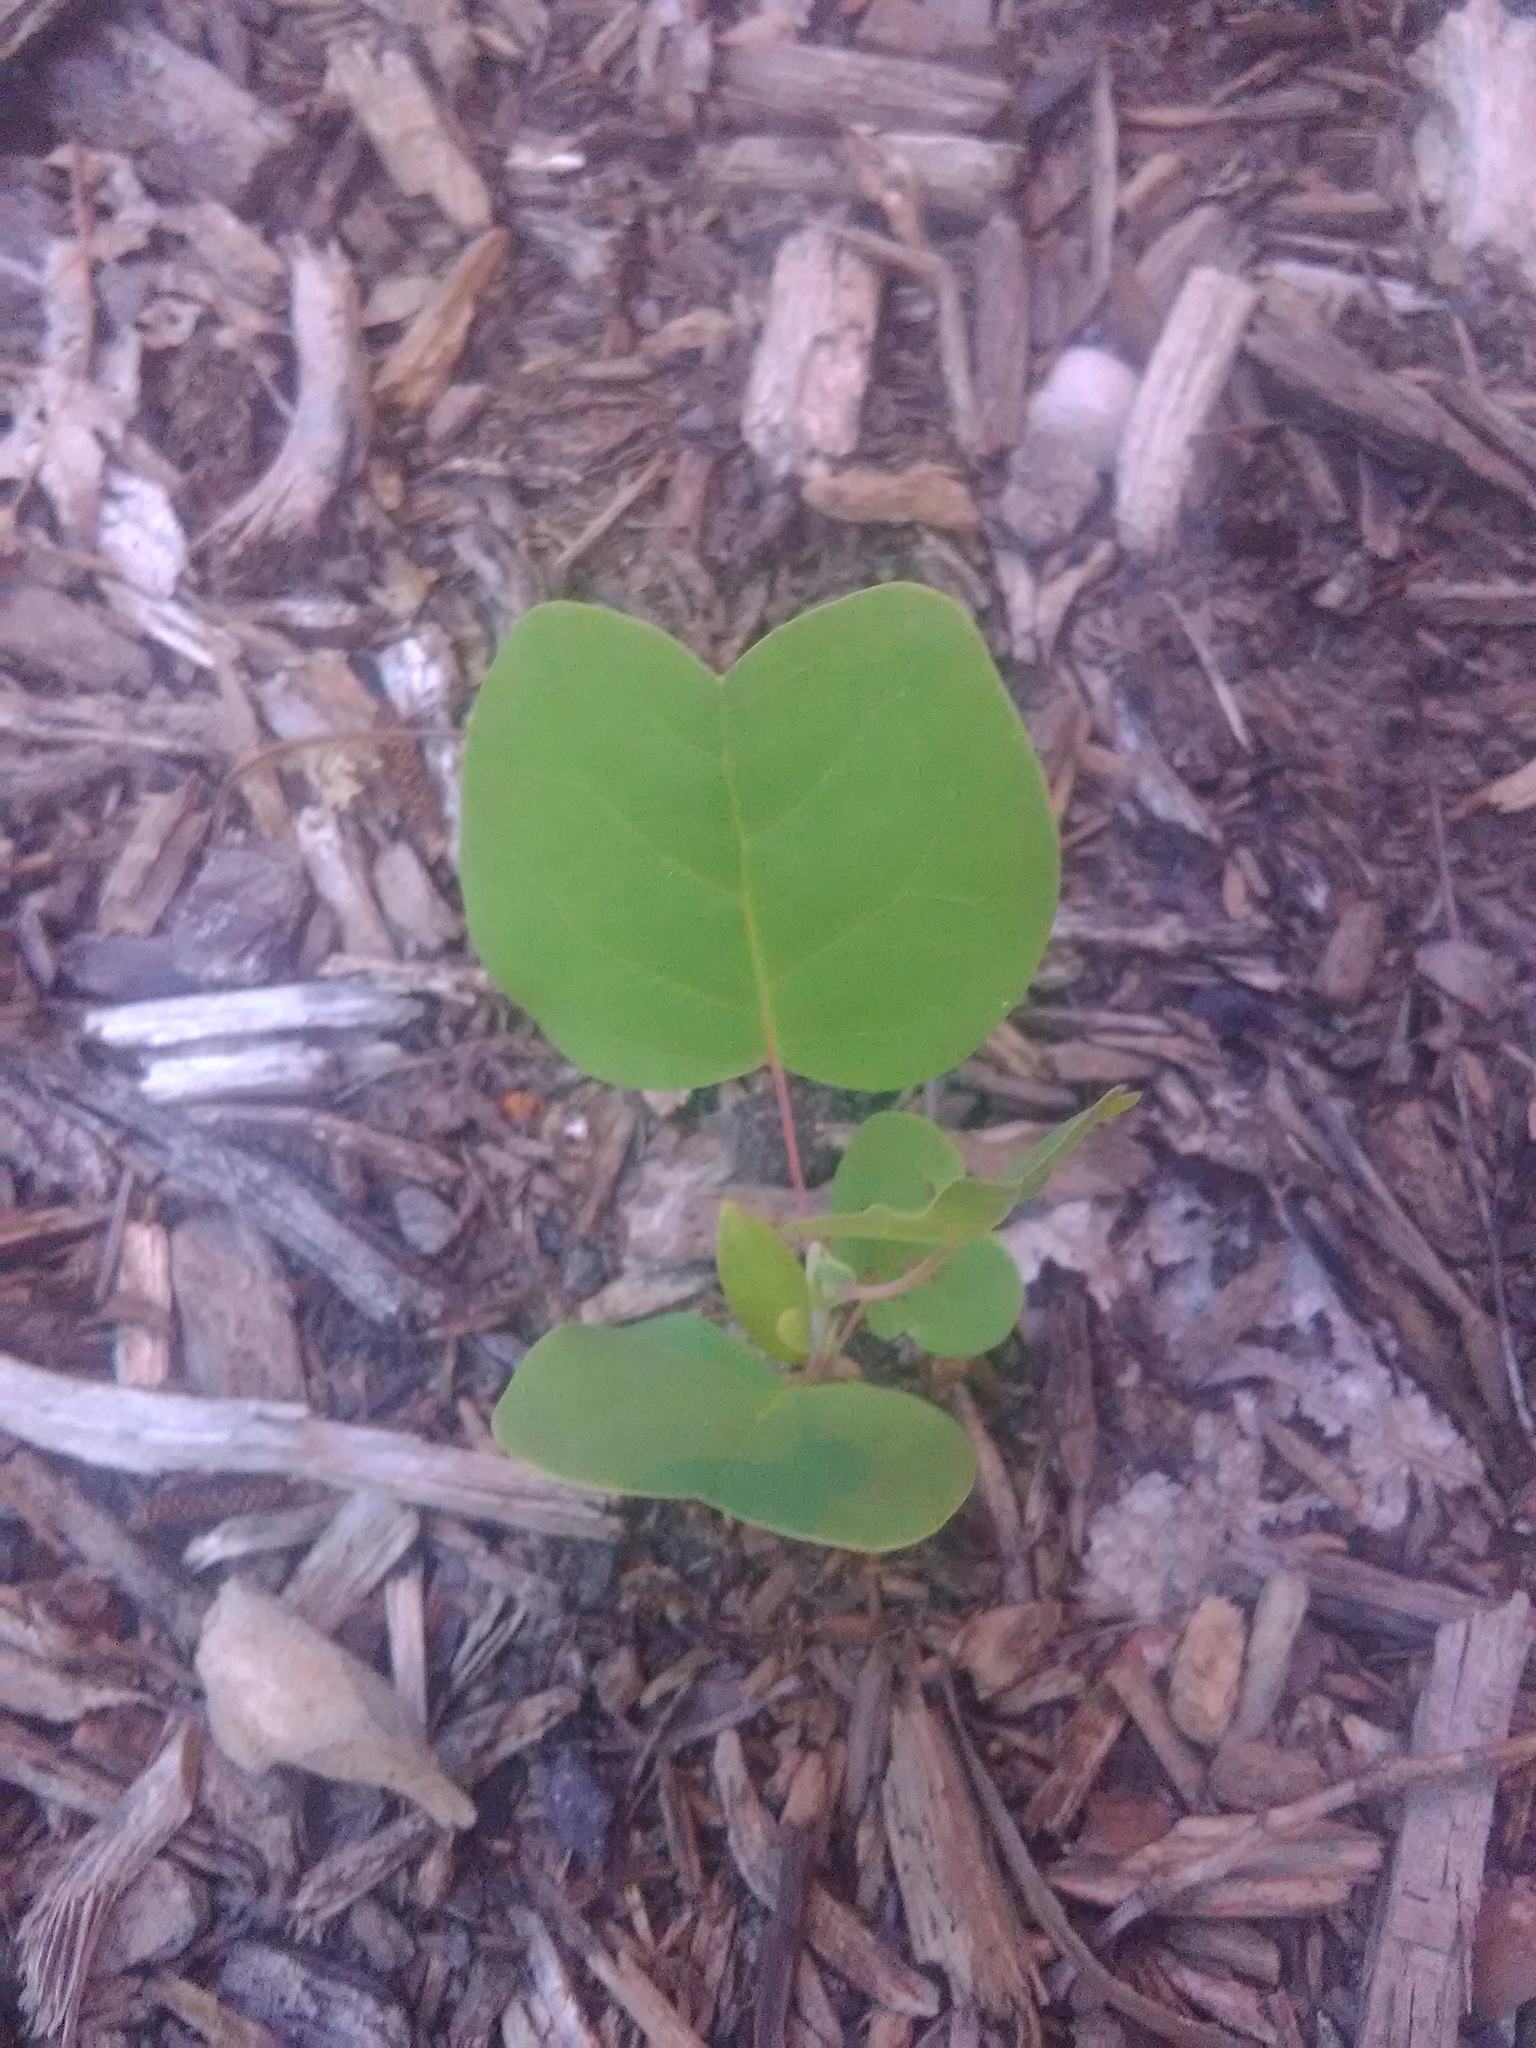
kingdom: Plantae
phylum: Tracheophyta
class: Magnoliopsida
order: Magnoliales
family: Magnoliaceae
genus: Liriodendron
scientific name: Liriodendron tulipifera
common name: Tulip tree
